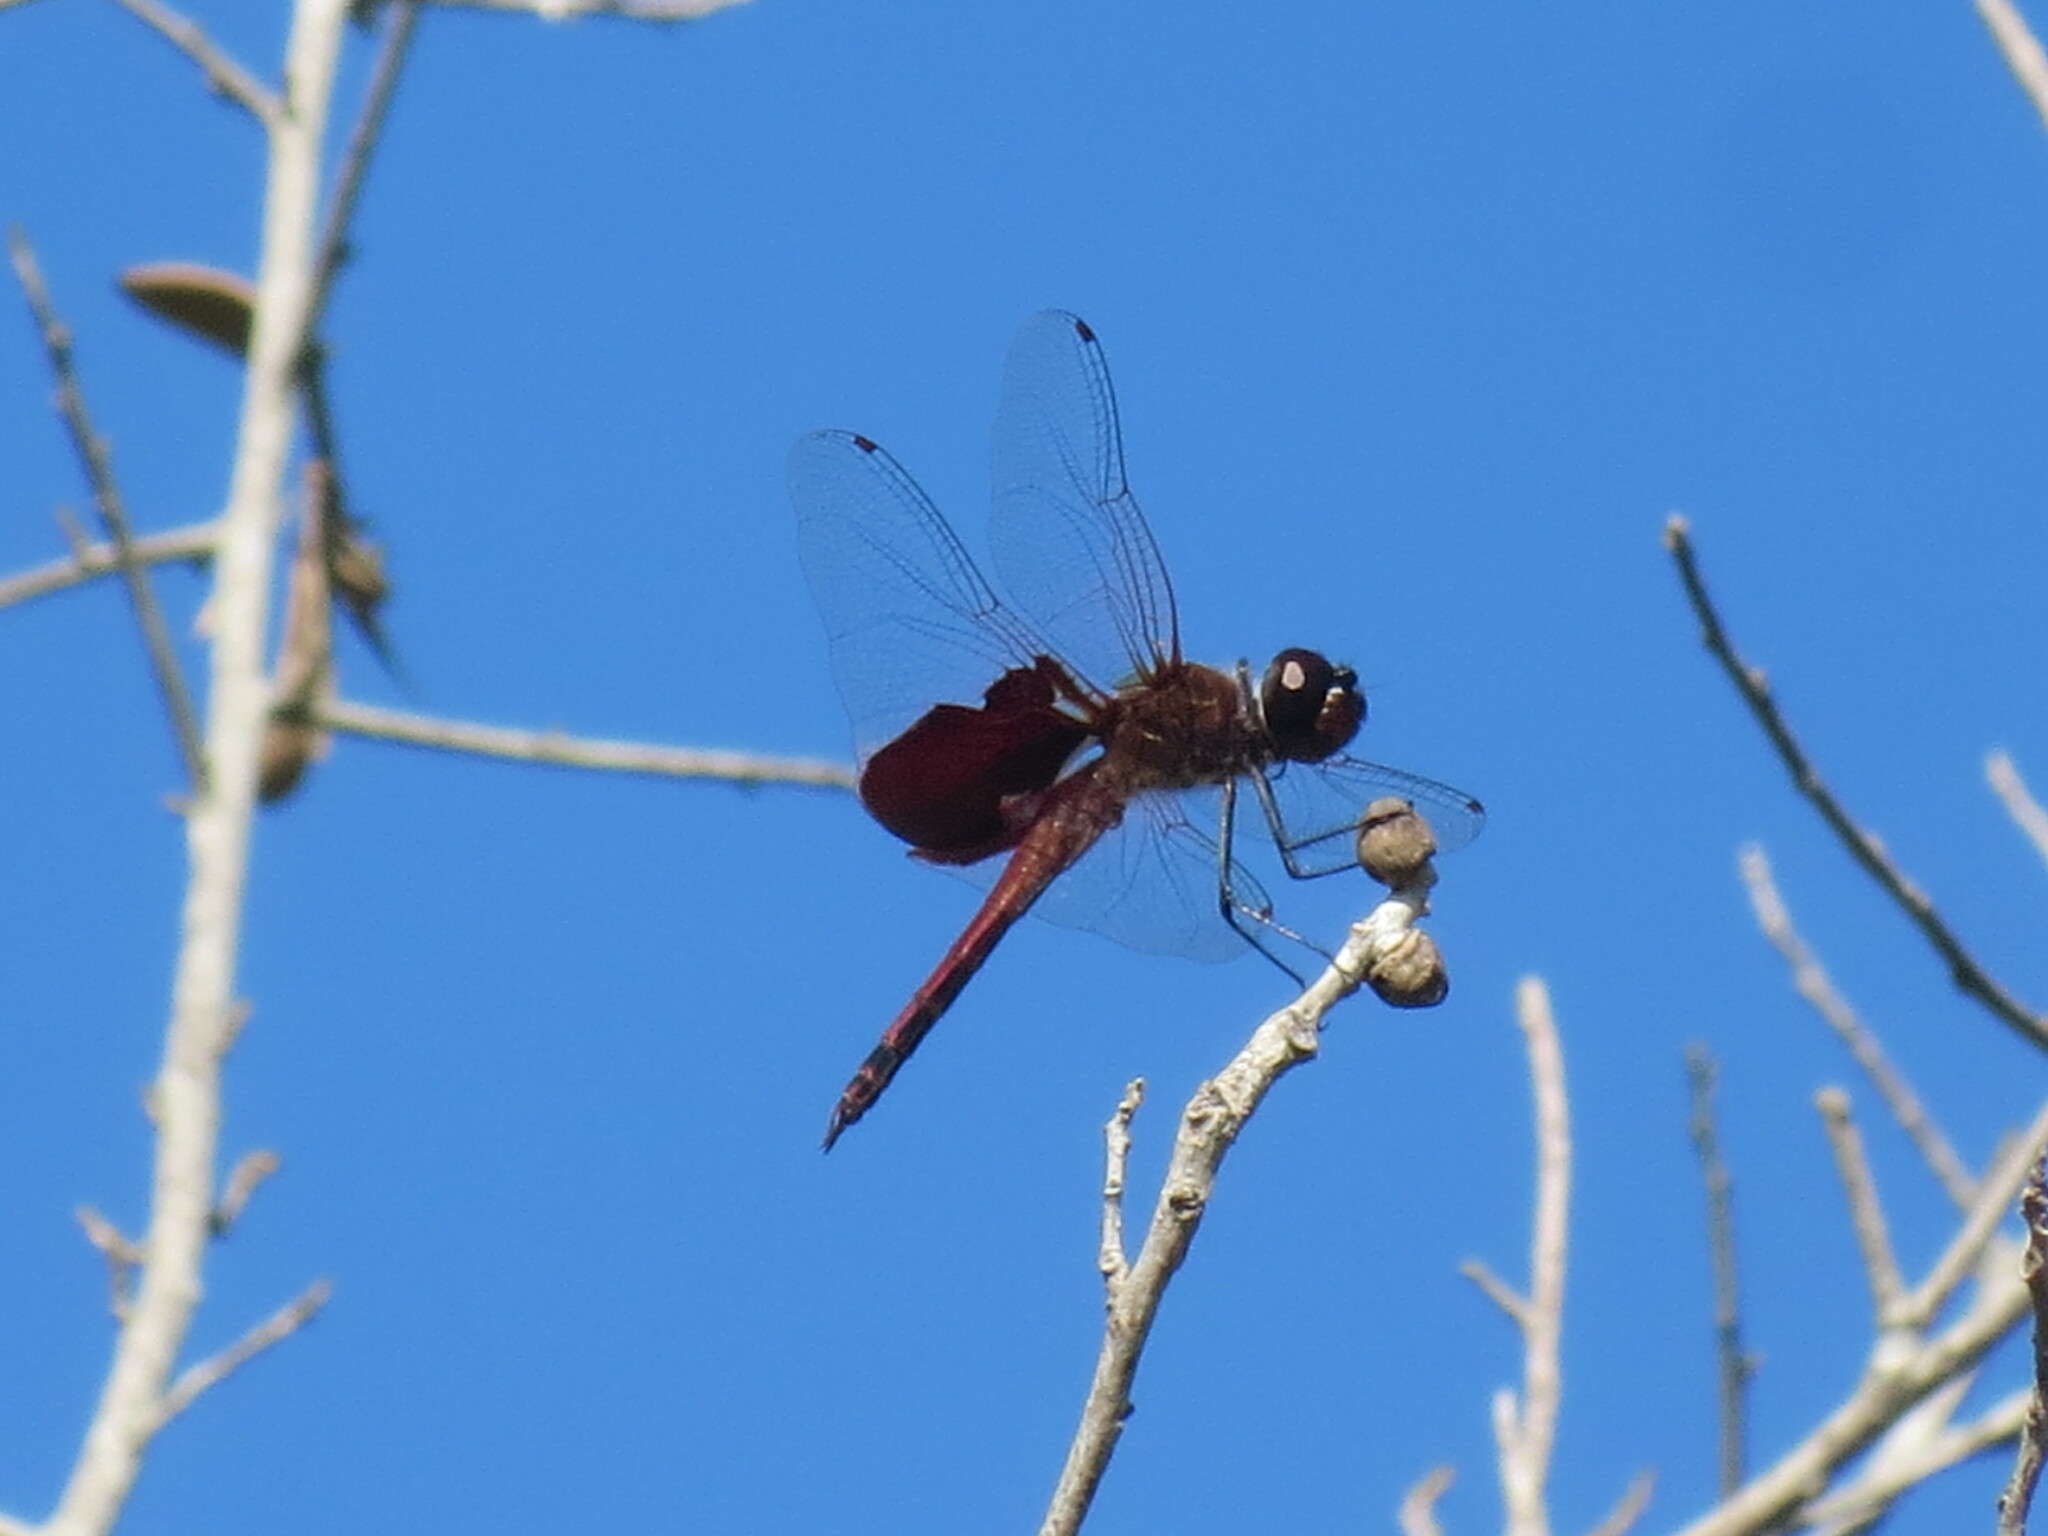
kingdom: Animalia
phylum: Arthropoda
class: Insecta
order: Odonata
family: Libellulidae
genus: Tramea
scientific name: Tramea carolina
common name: Carolina saddlebags
